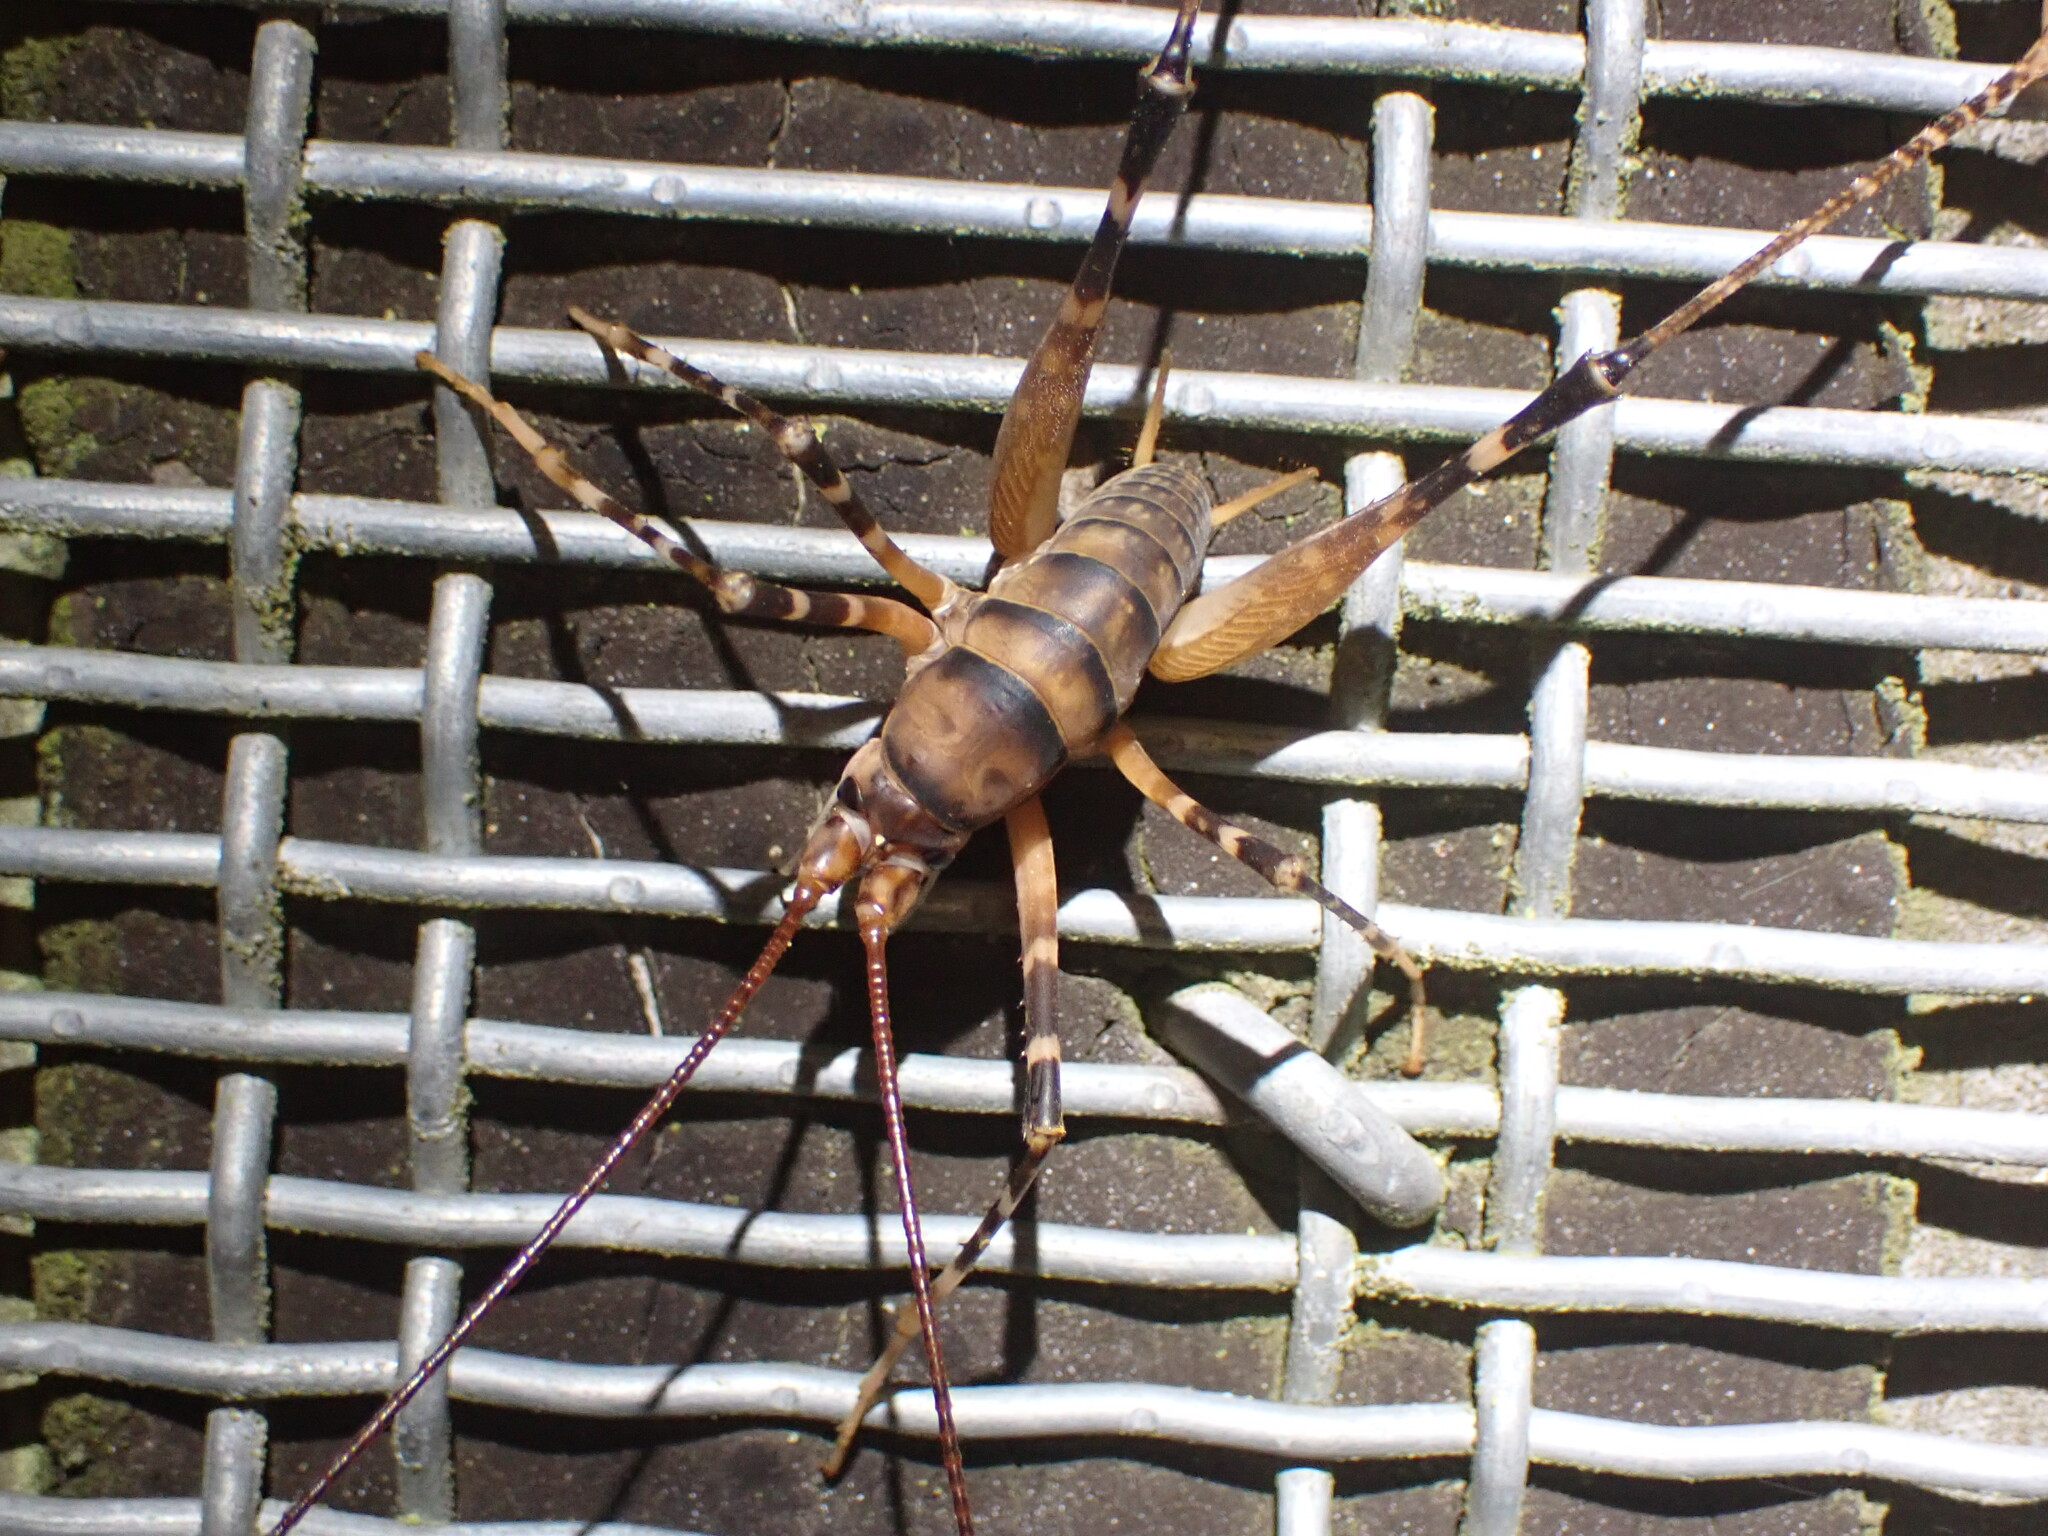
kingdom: Animalia
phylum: Arthropoda
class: Insecta
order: Orthoptera
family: Rhaphidophoridae
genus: Pachyrhamma
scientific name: Pachyrhamma edwardsii
